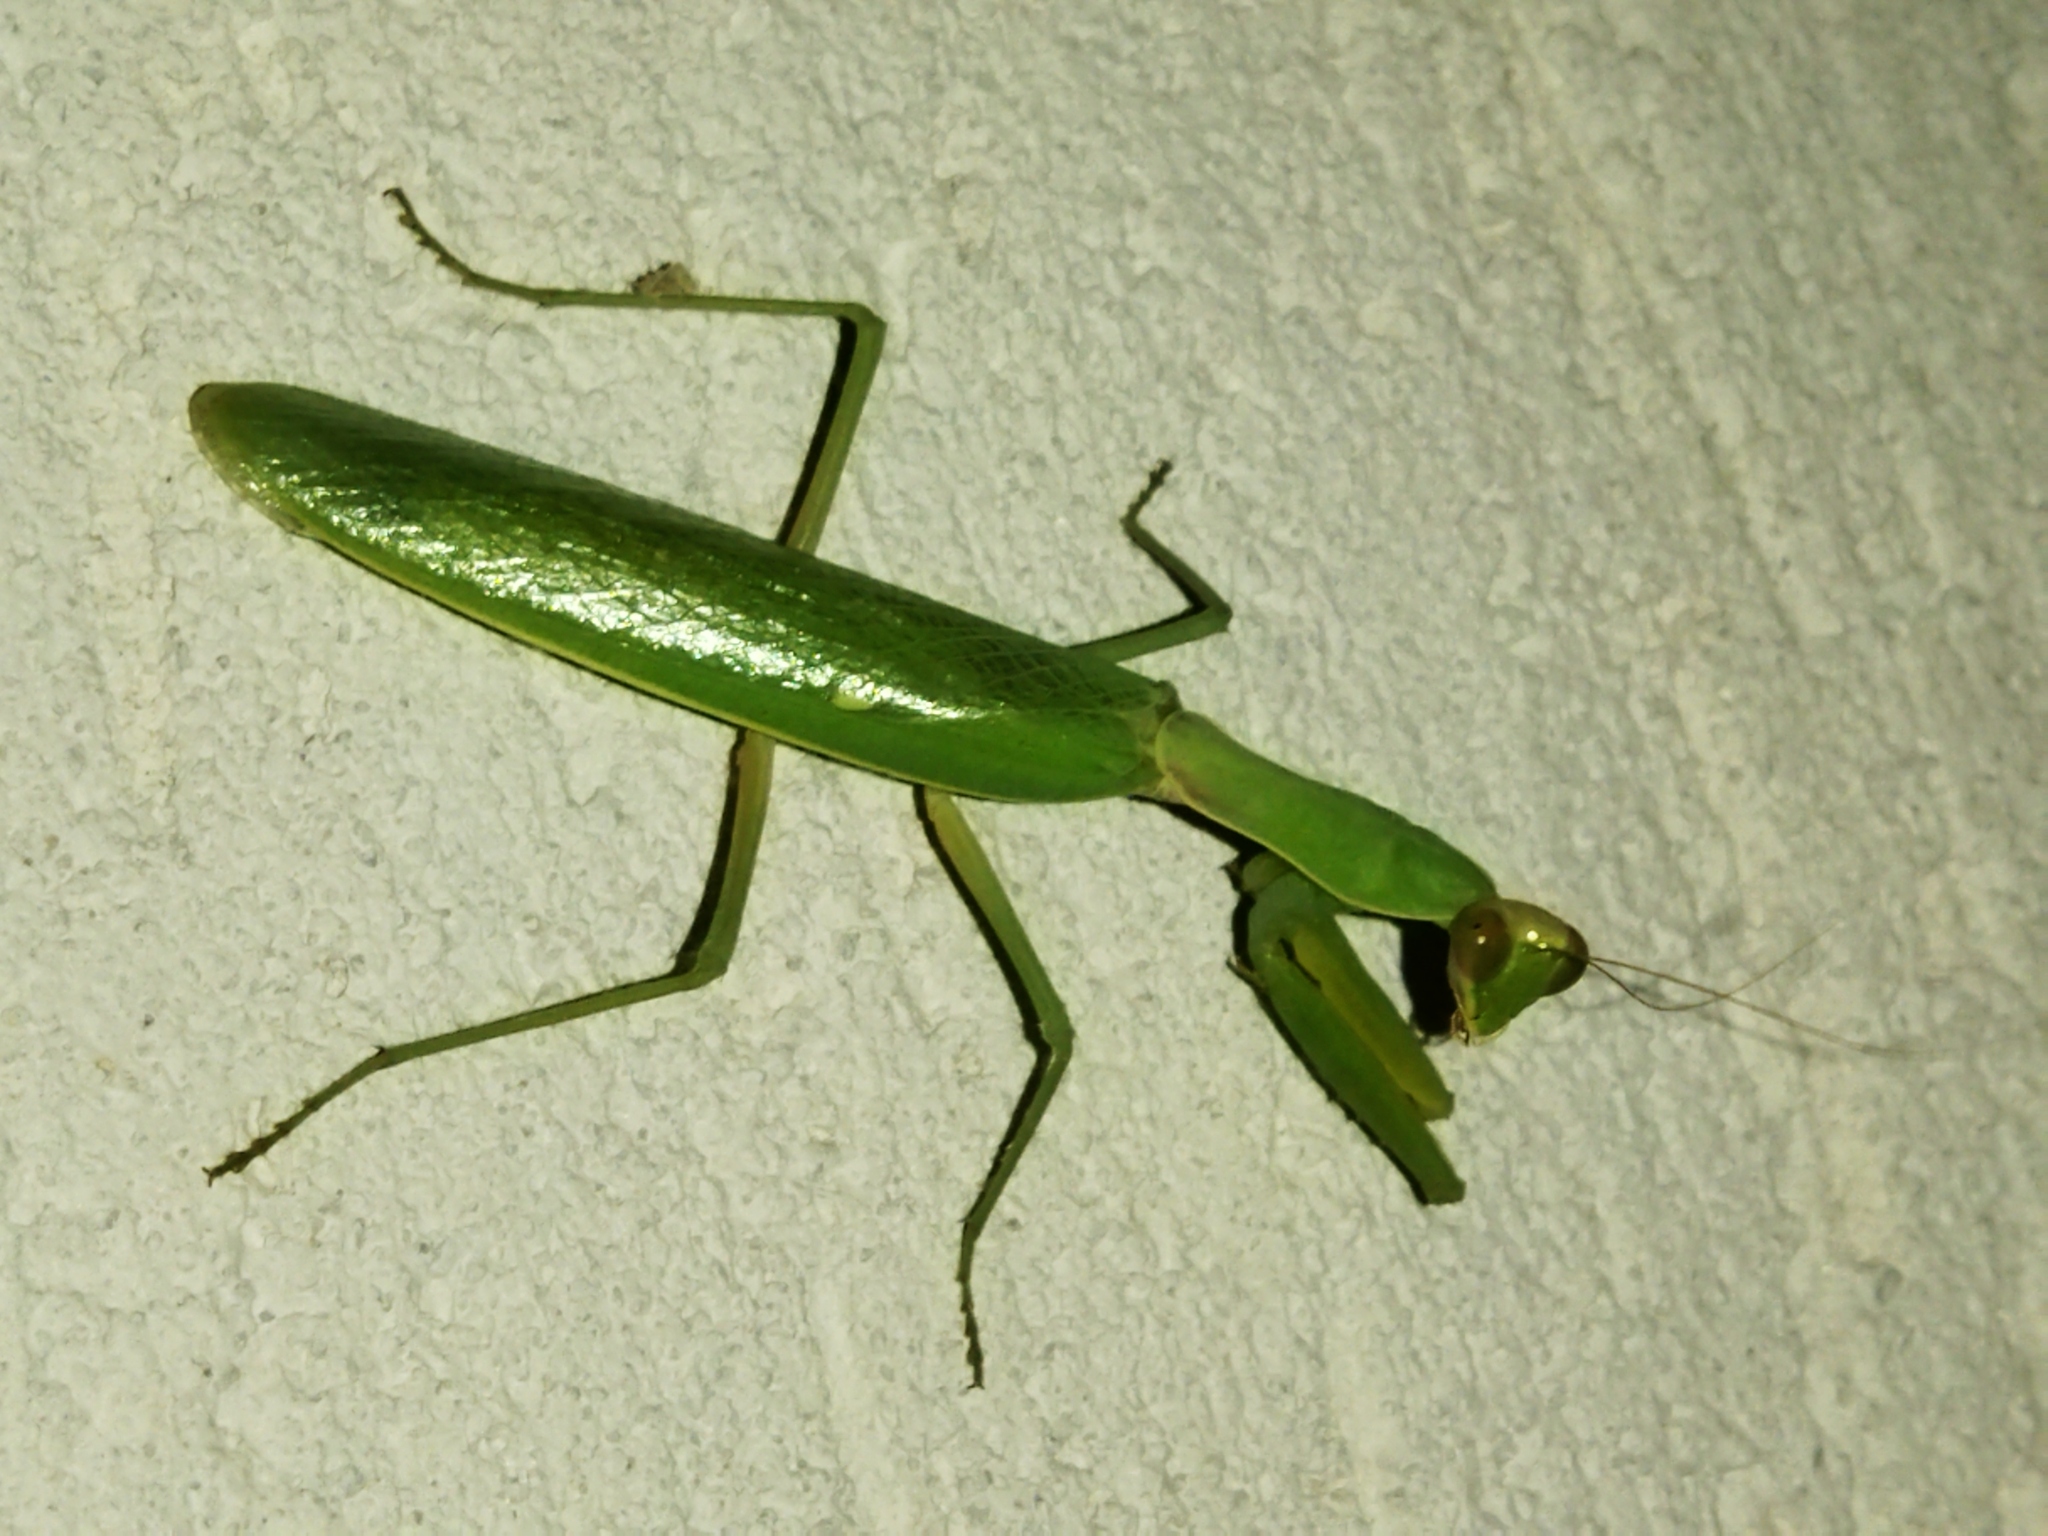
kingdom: Animalia
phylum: Arthropoda
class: Insecta
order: Mantodea
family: Mantidae
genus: Hierodula
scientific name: Hierodula transcaucasica
